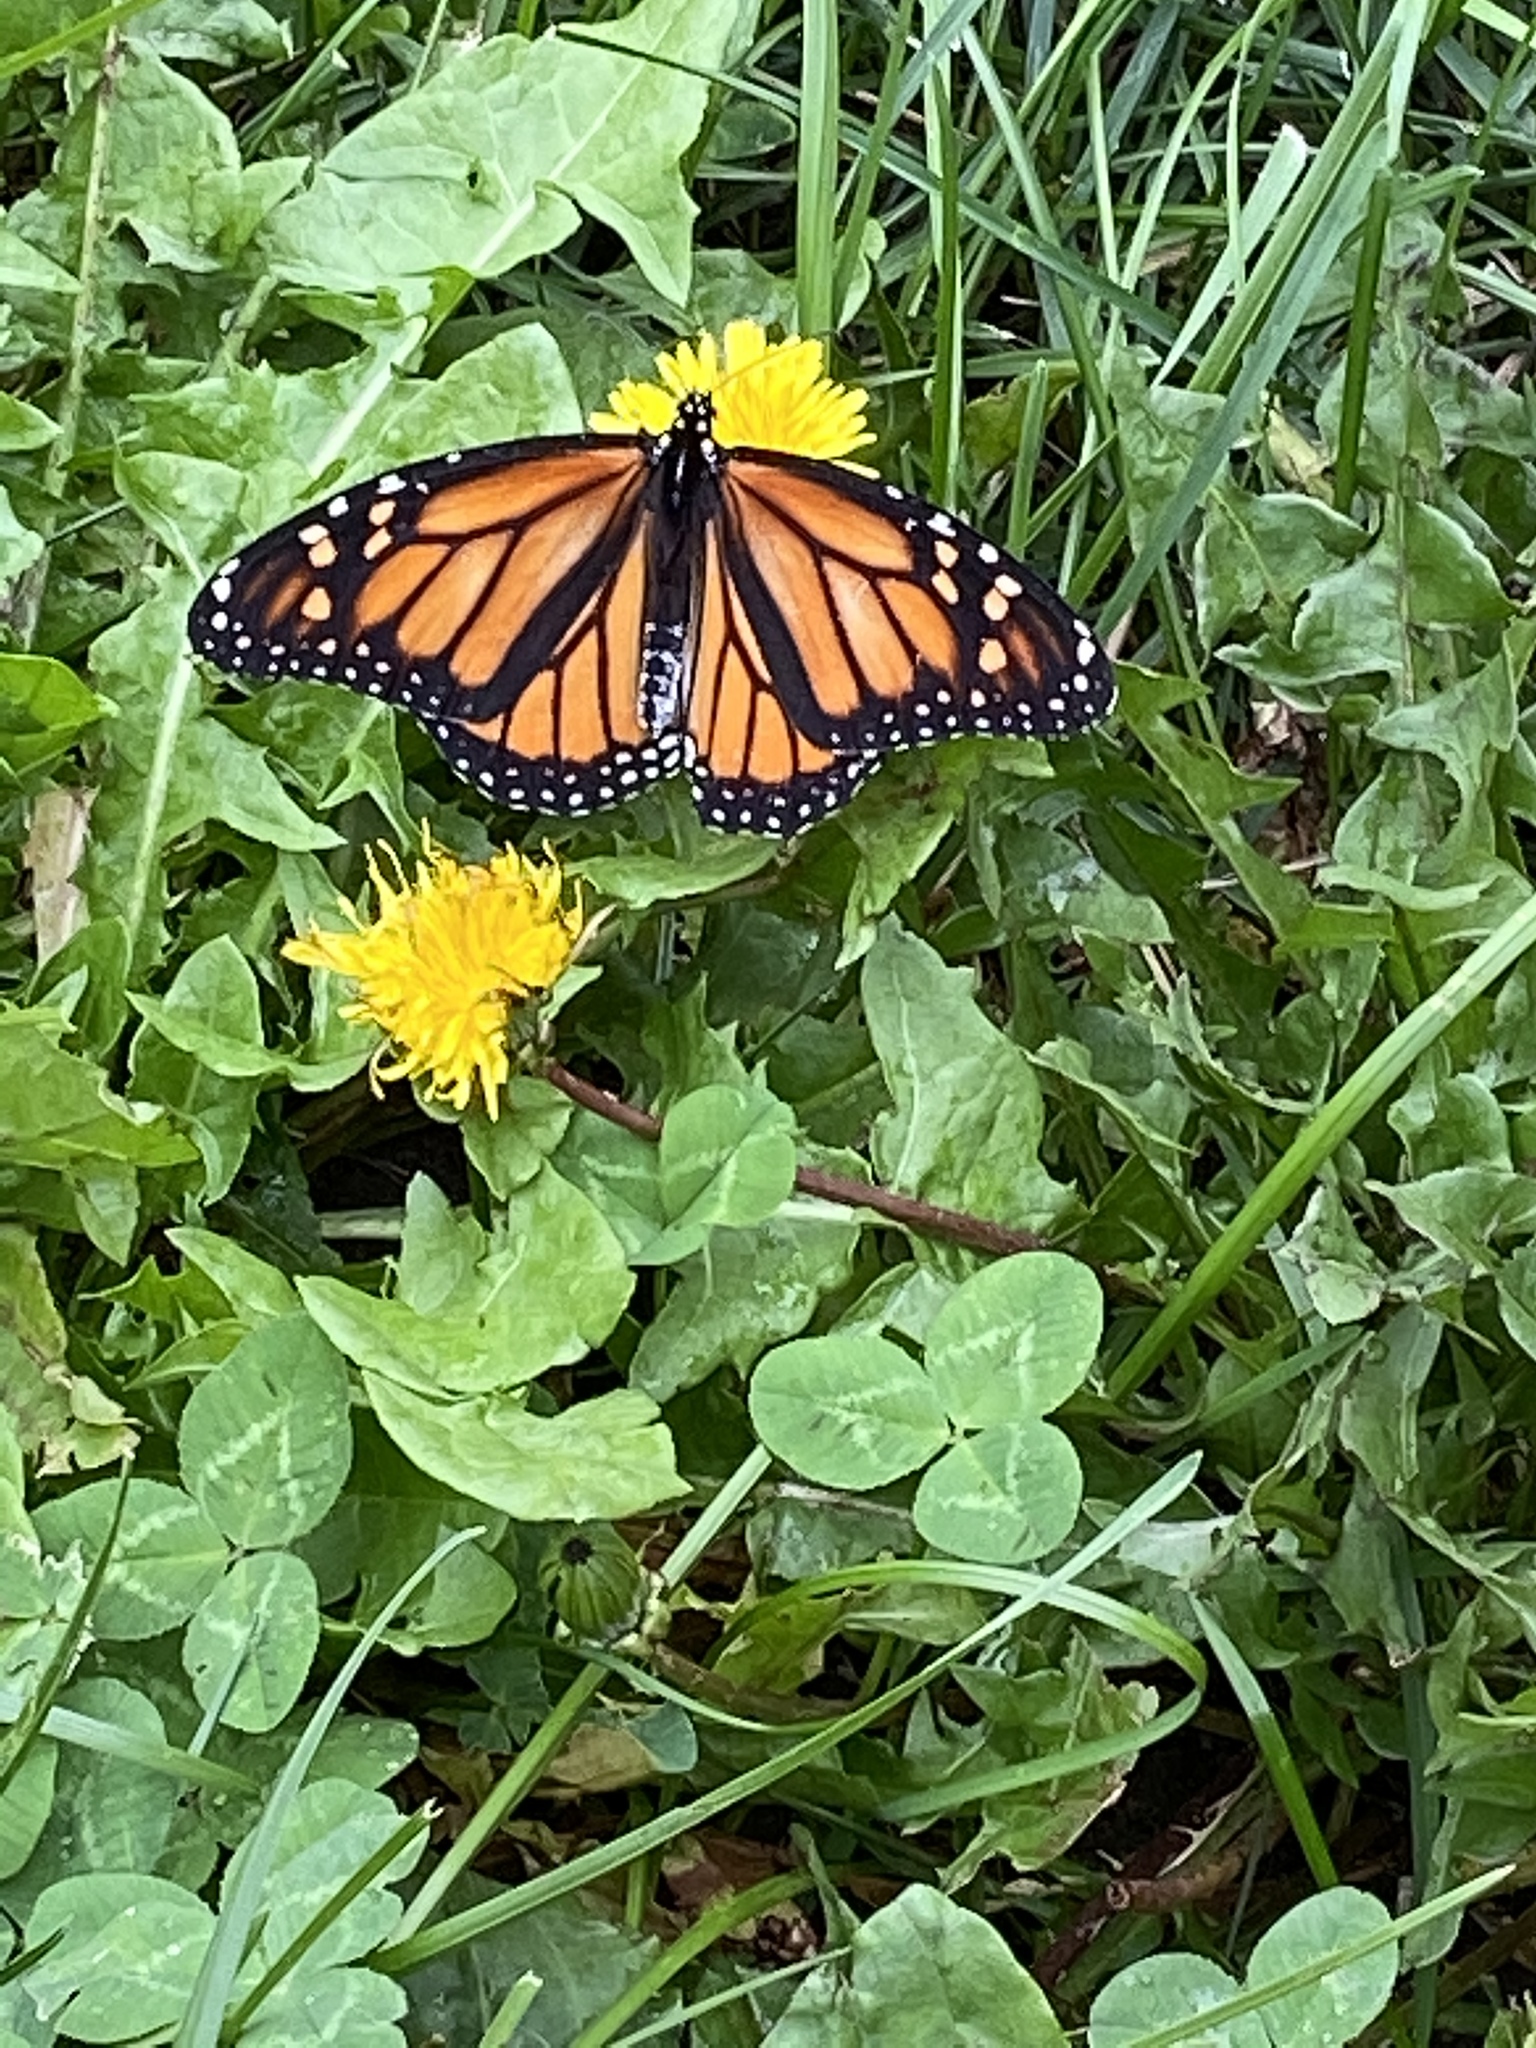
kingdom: Animalia
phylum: Arthropoda
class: Insecta
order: Lepidoptera
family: Nymphalidae
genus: Danaus
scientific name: Danaus plexippus
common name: Monarch
